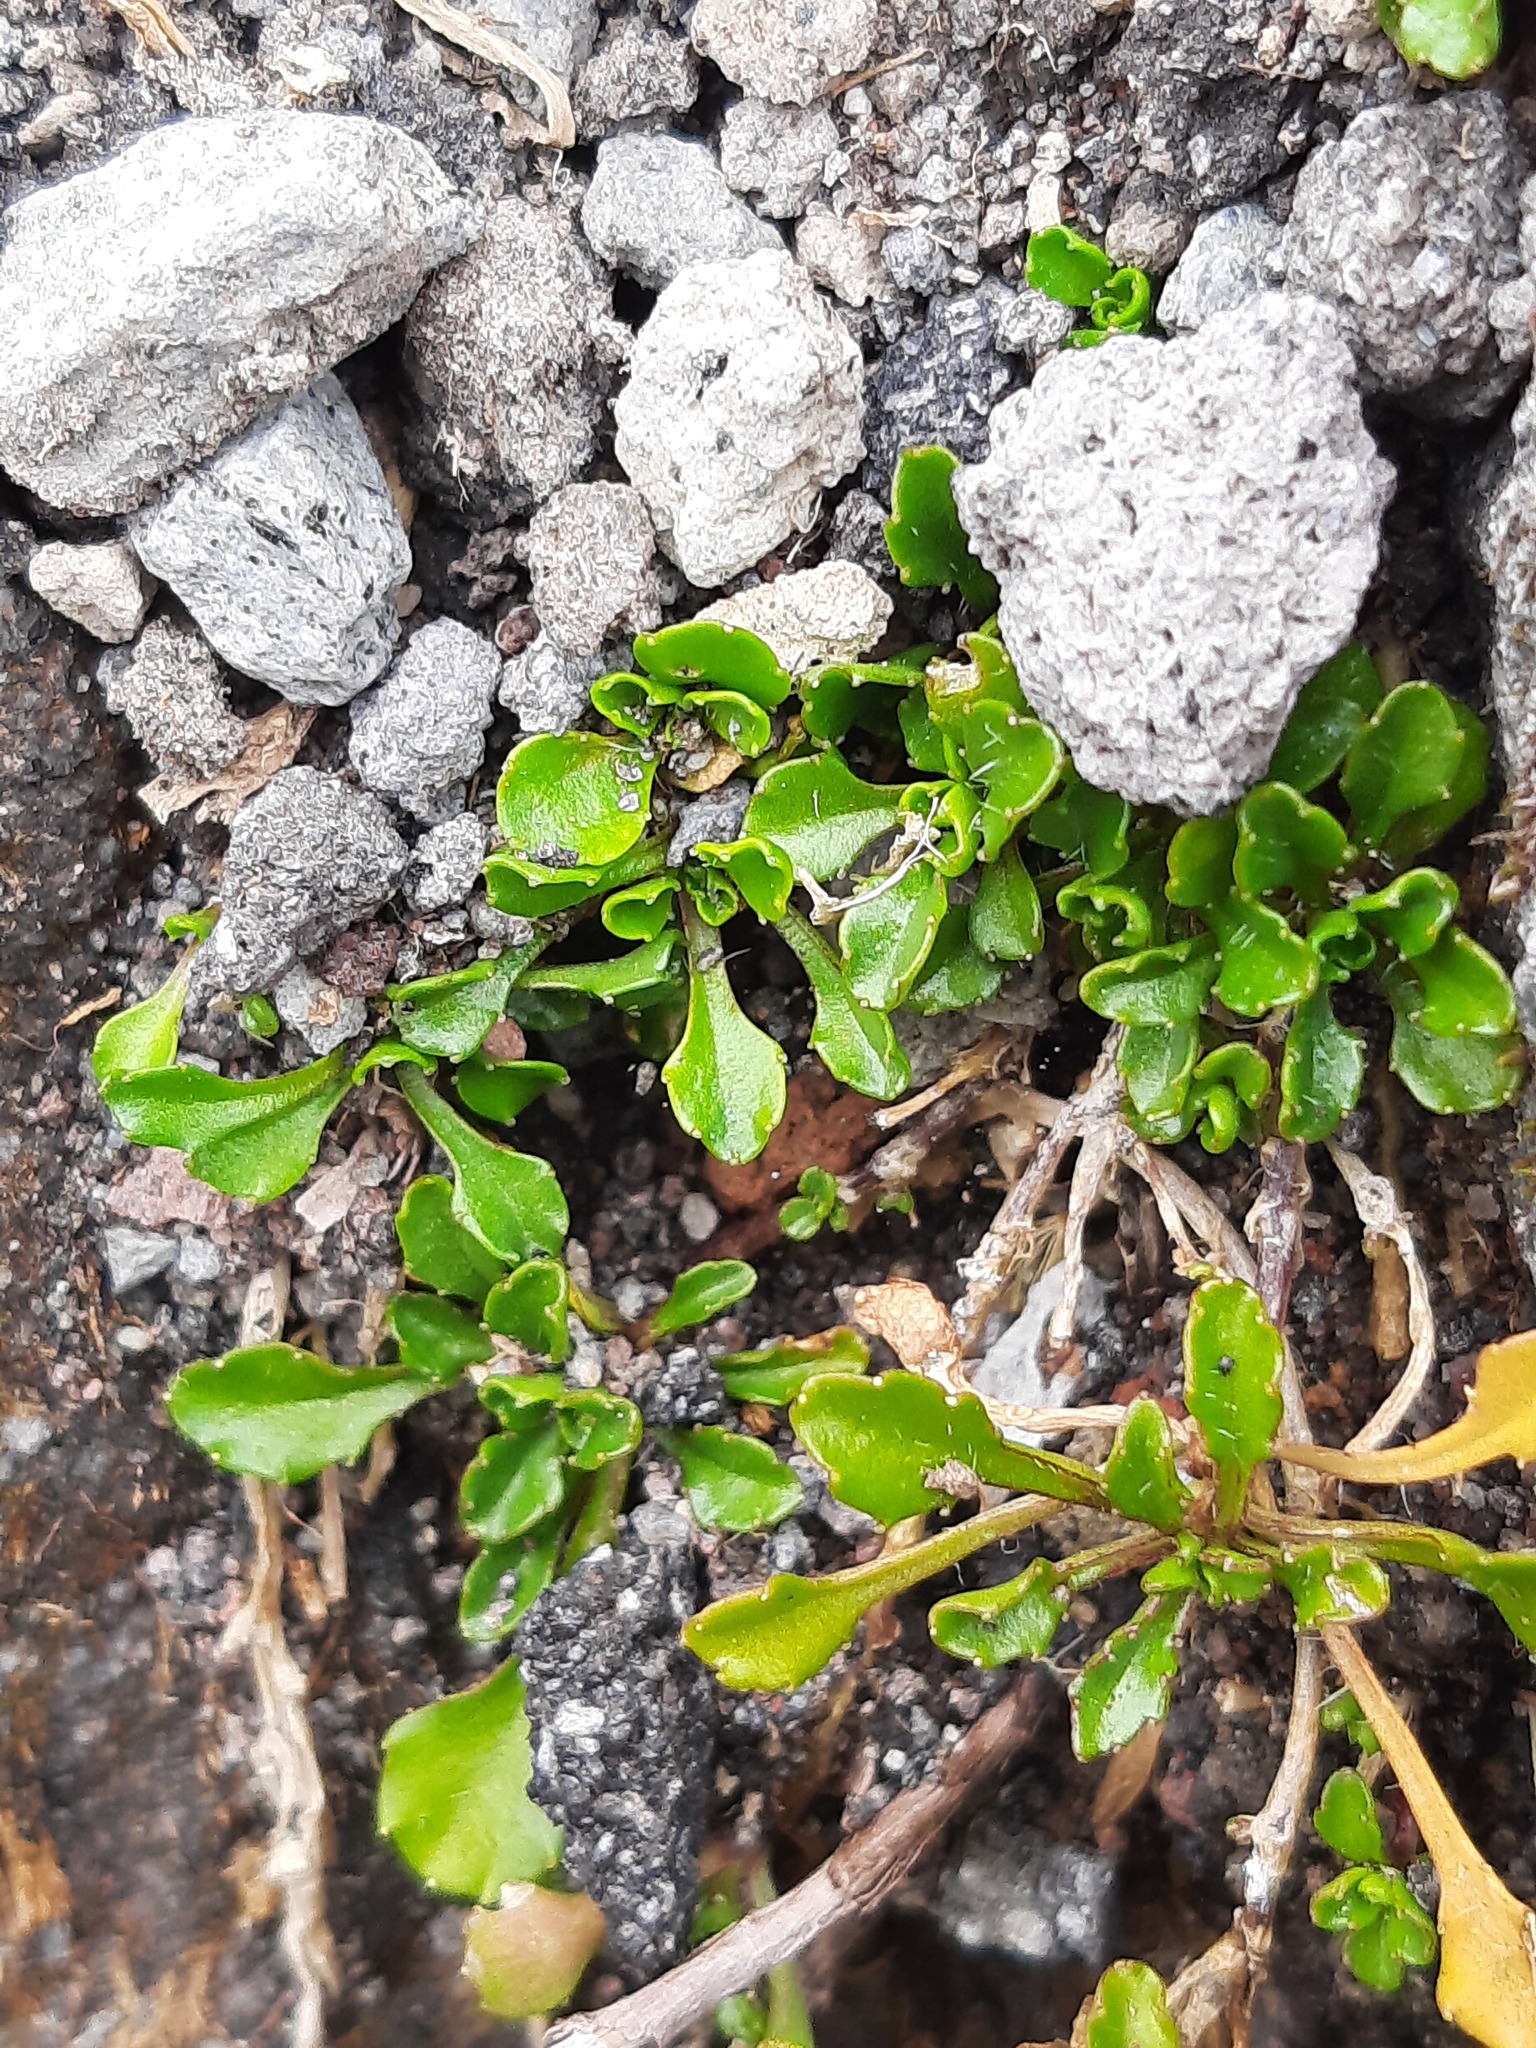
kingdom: Plantae
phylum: Tracheophyta
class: Magnoliopsida
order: Asterales
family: Campanulaceae
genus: Wahlenbergia
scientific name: Wahlenbergia pygmaea
